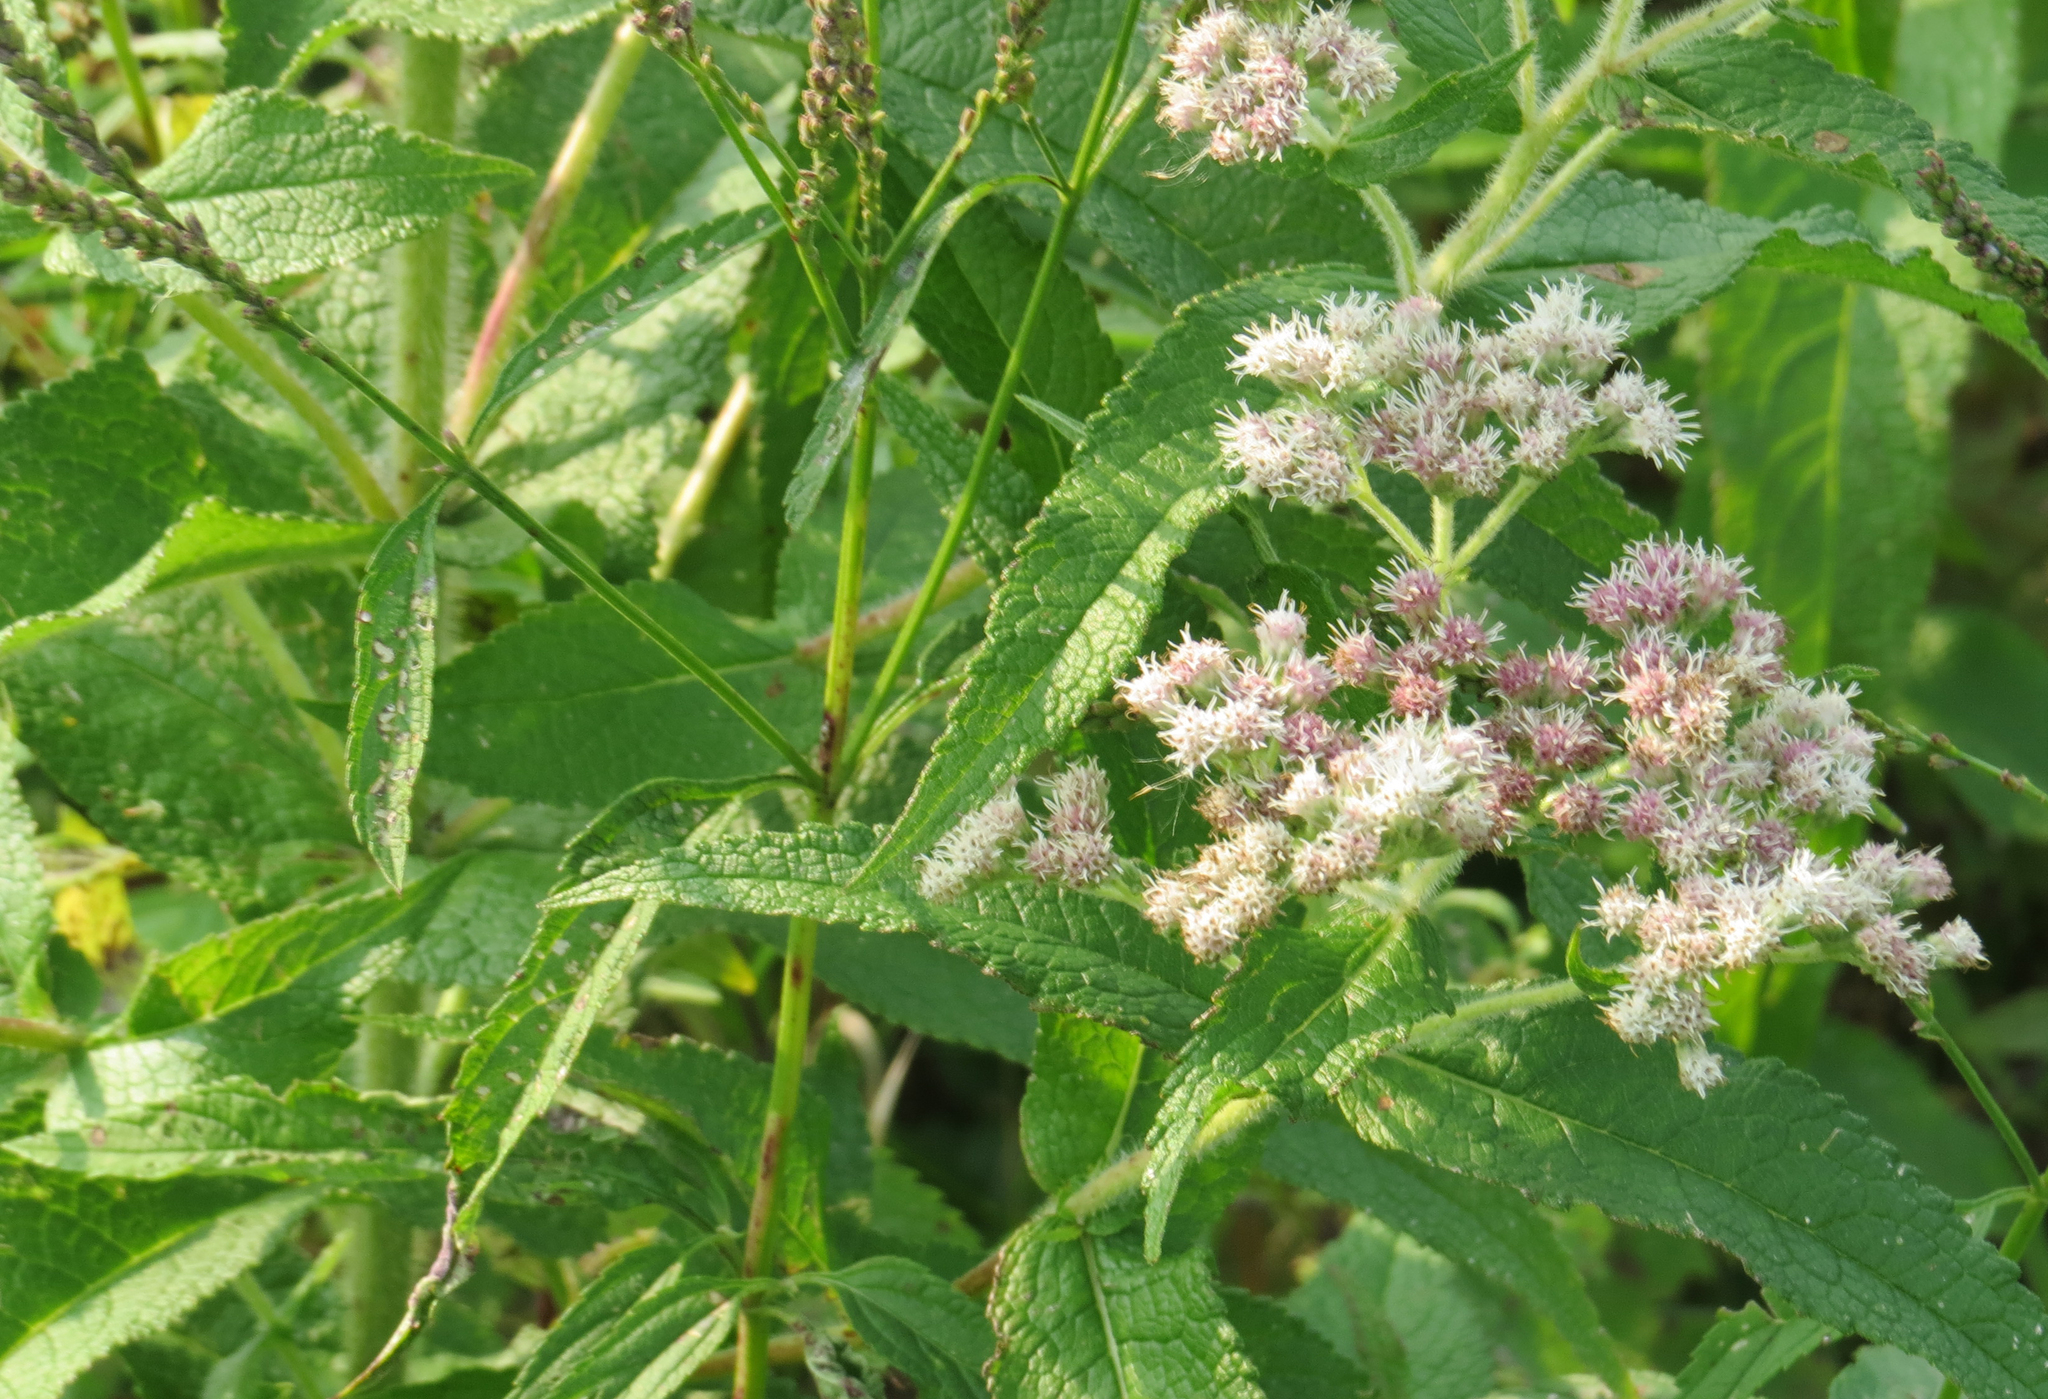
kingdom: Plantae
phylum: Tracheophyta
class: Magnoliopsida
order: Asterales
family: Asteraceae
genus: Eupatorium
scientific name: Eupatorium perfoliatum
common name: Boneset
